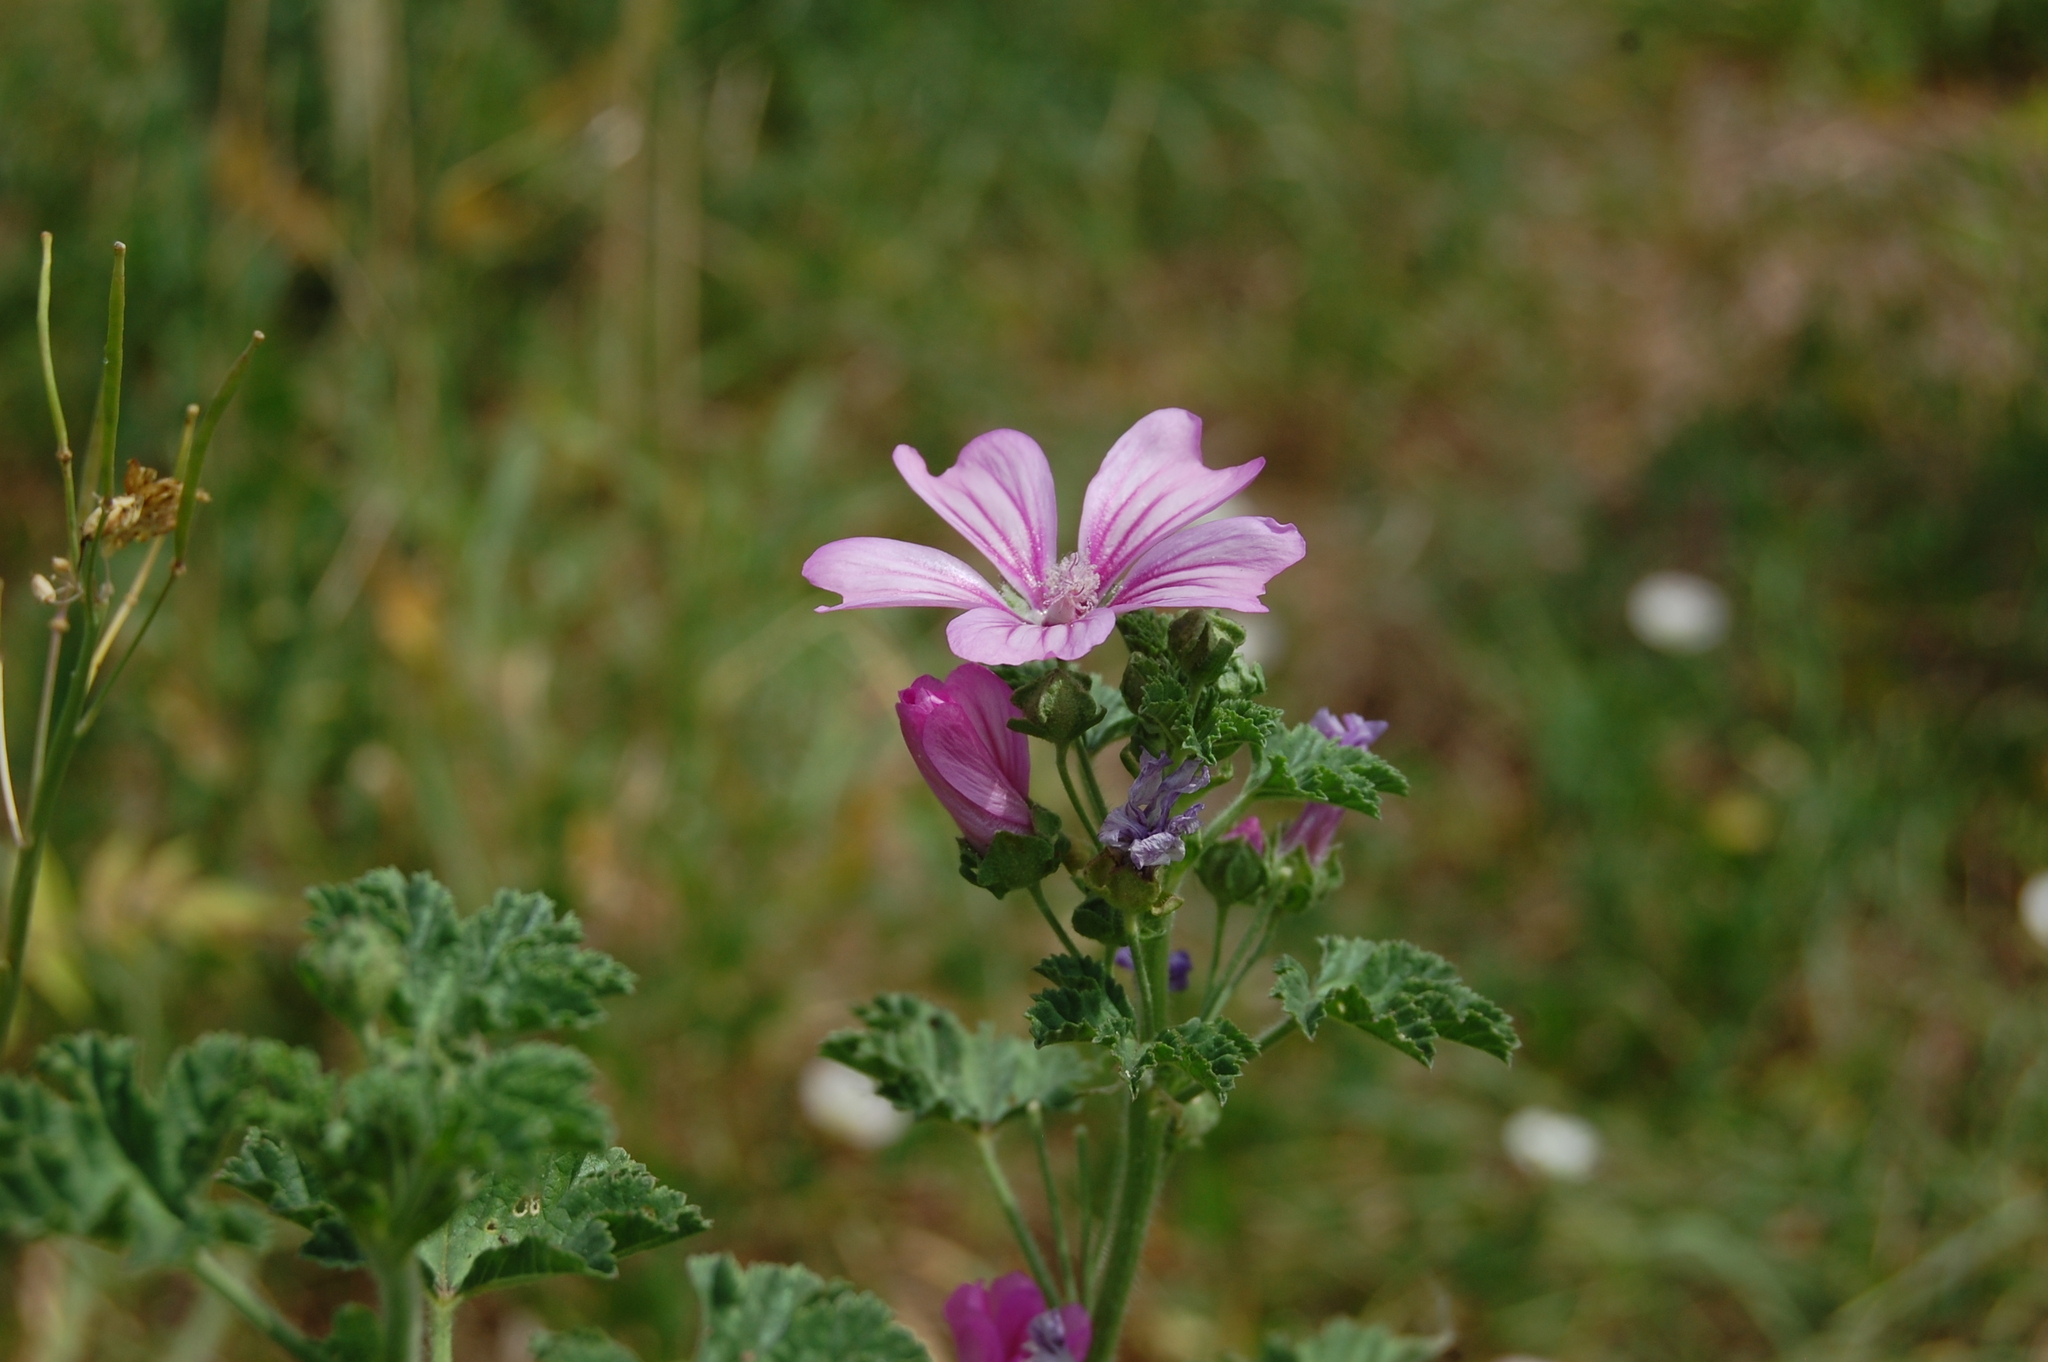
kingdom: Plantae
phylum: Tracheophyta
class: Magnoliopsida
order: Malvales
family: Malvaceae
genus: Malva
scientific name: Malva sylvestris
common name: Common mallow
